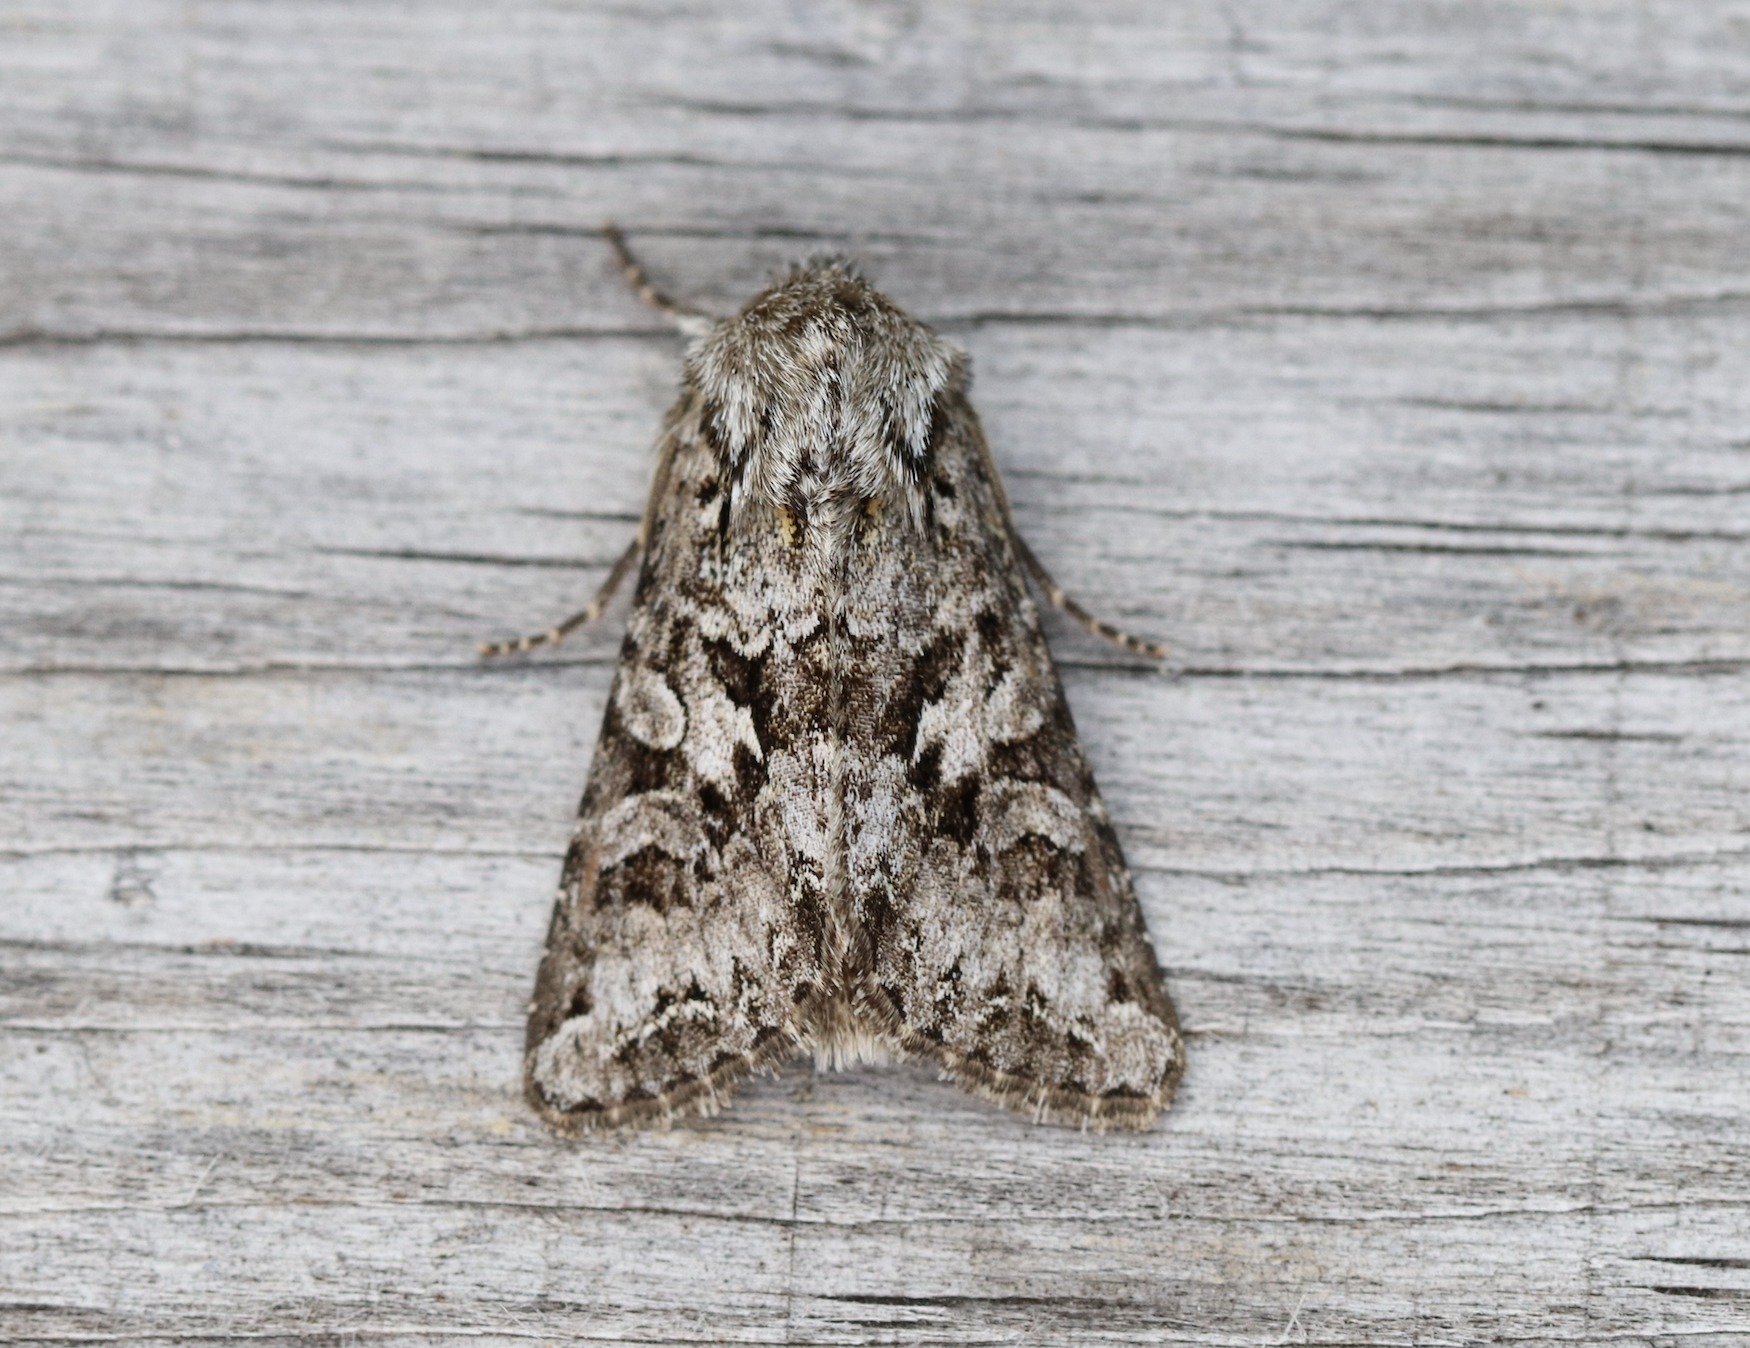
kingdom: Animalia
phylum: Arthropoda
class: Insecta
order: Lepidoptera
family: Noctuidae
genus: Hada
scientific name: Hada plebeja
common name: Shears
